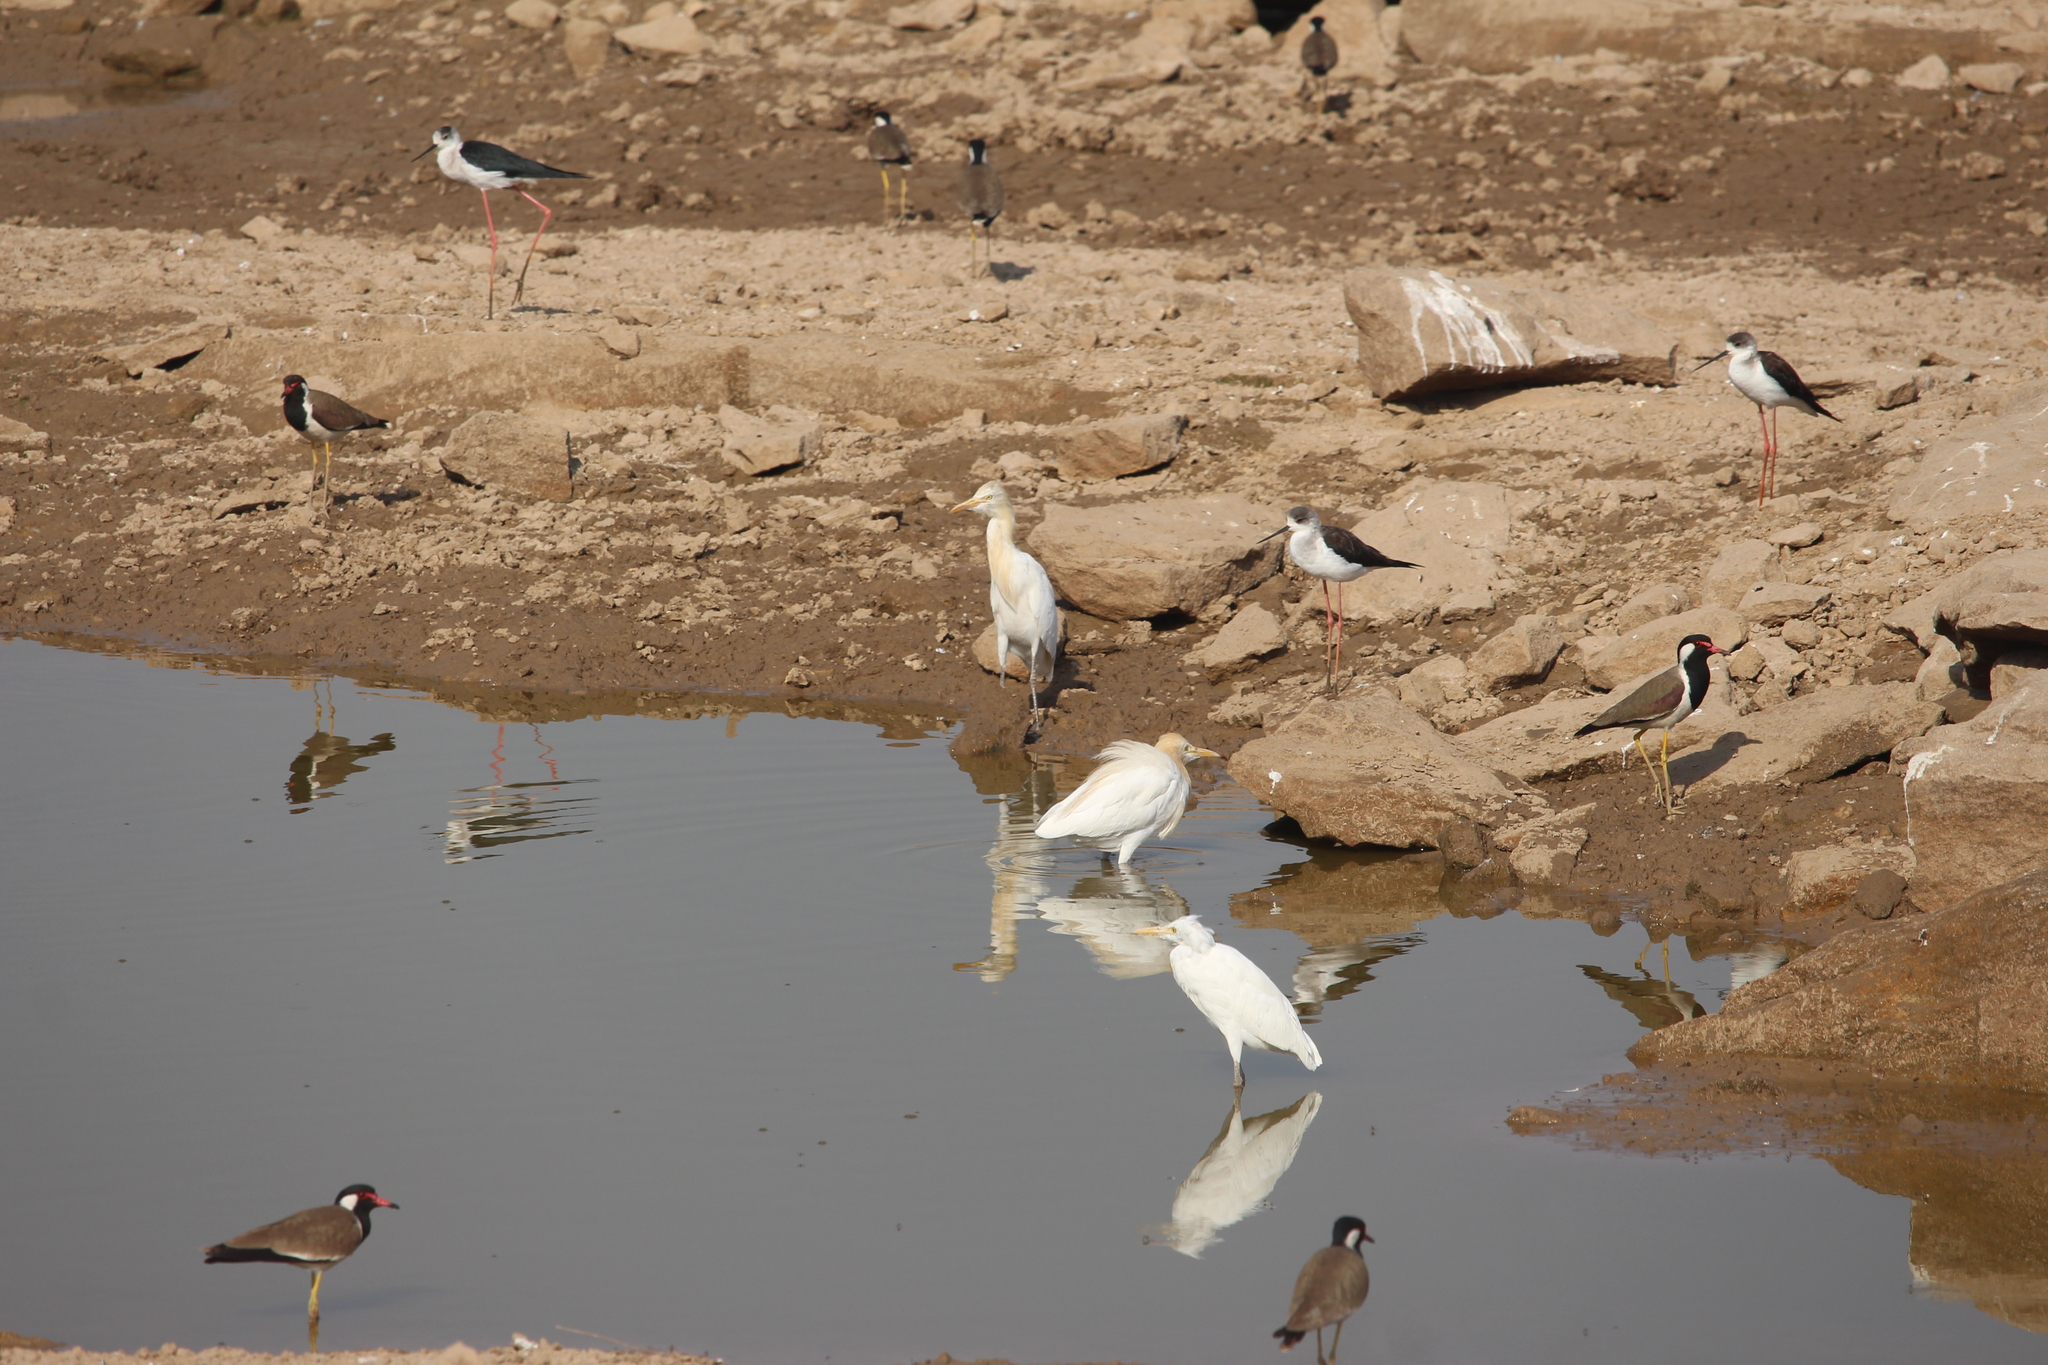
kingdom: Animalia
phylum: Chordata
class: Aves
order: Pelecaniformes
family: Ardeidae
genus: Bubulcus
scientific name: Bubulcus coromandus
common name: Eastern cattle egret
